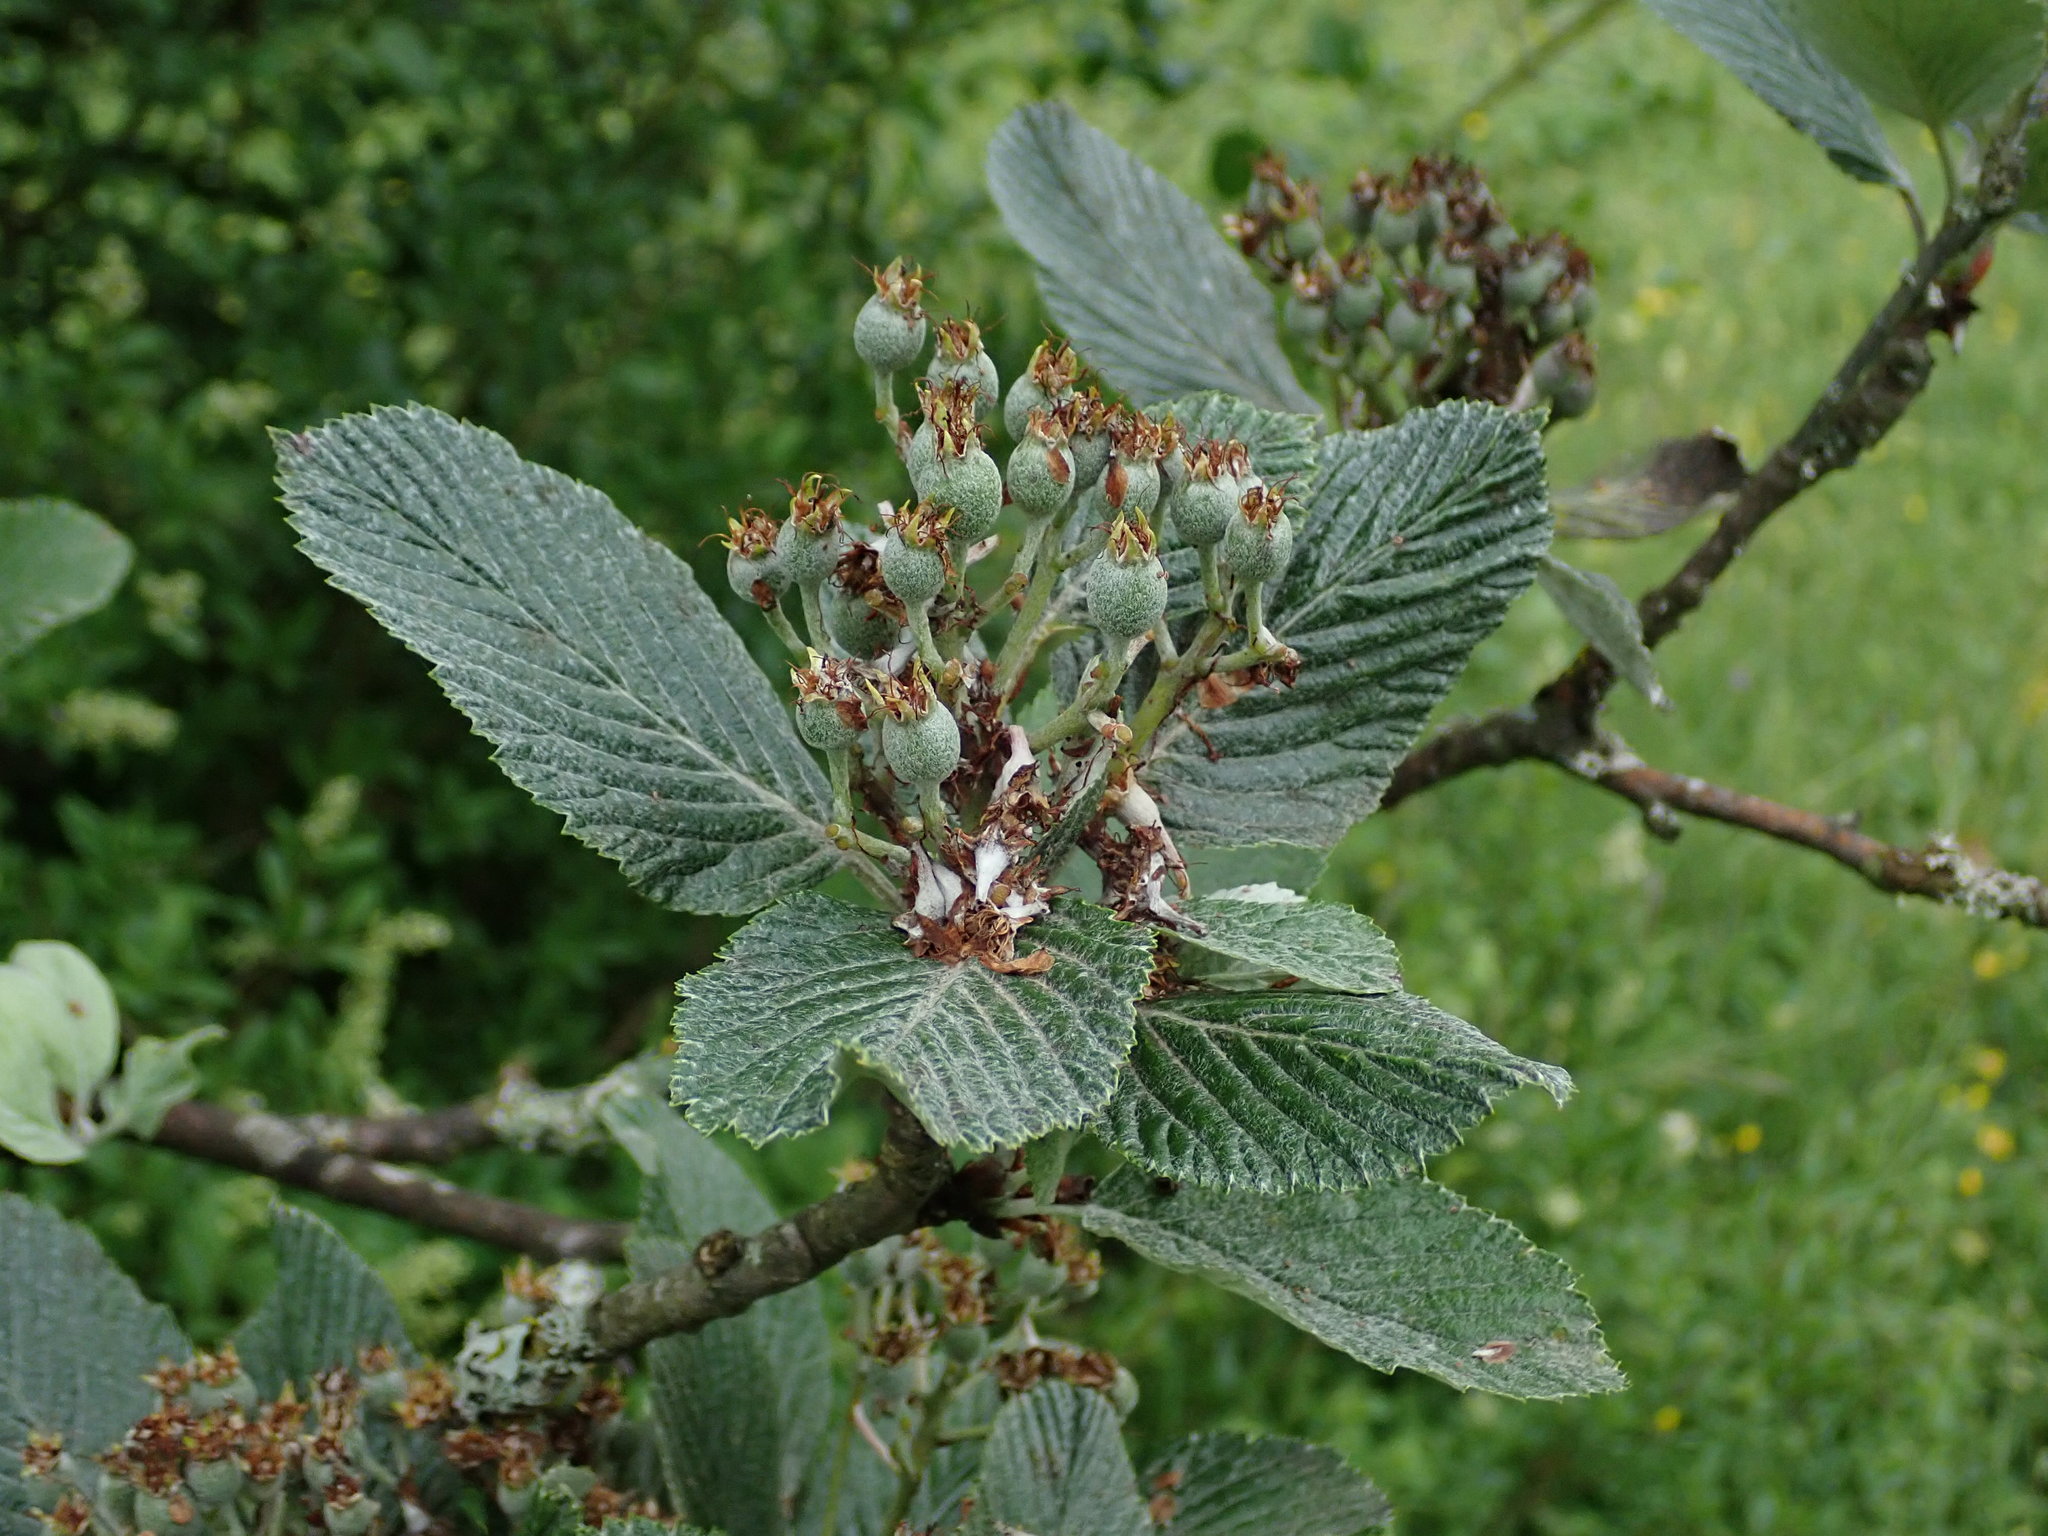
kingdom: Plantae
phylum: Tracheophyta
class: Magnoliopsida
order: Dipsacales
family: Viburnaceae
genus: Viburnum
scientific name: Viburnum lantana
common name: Wayfaring tree
